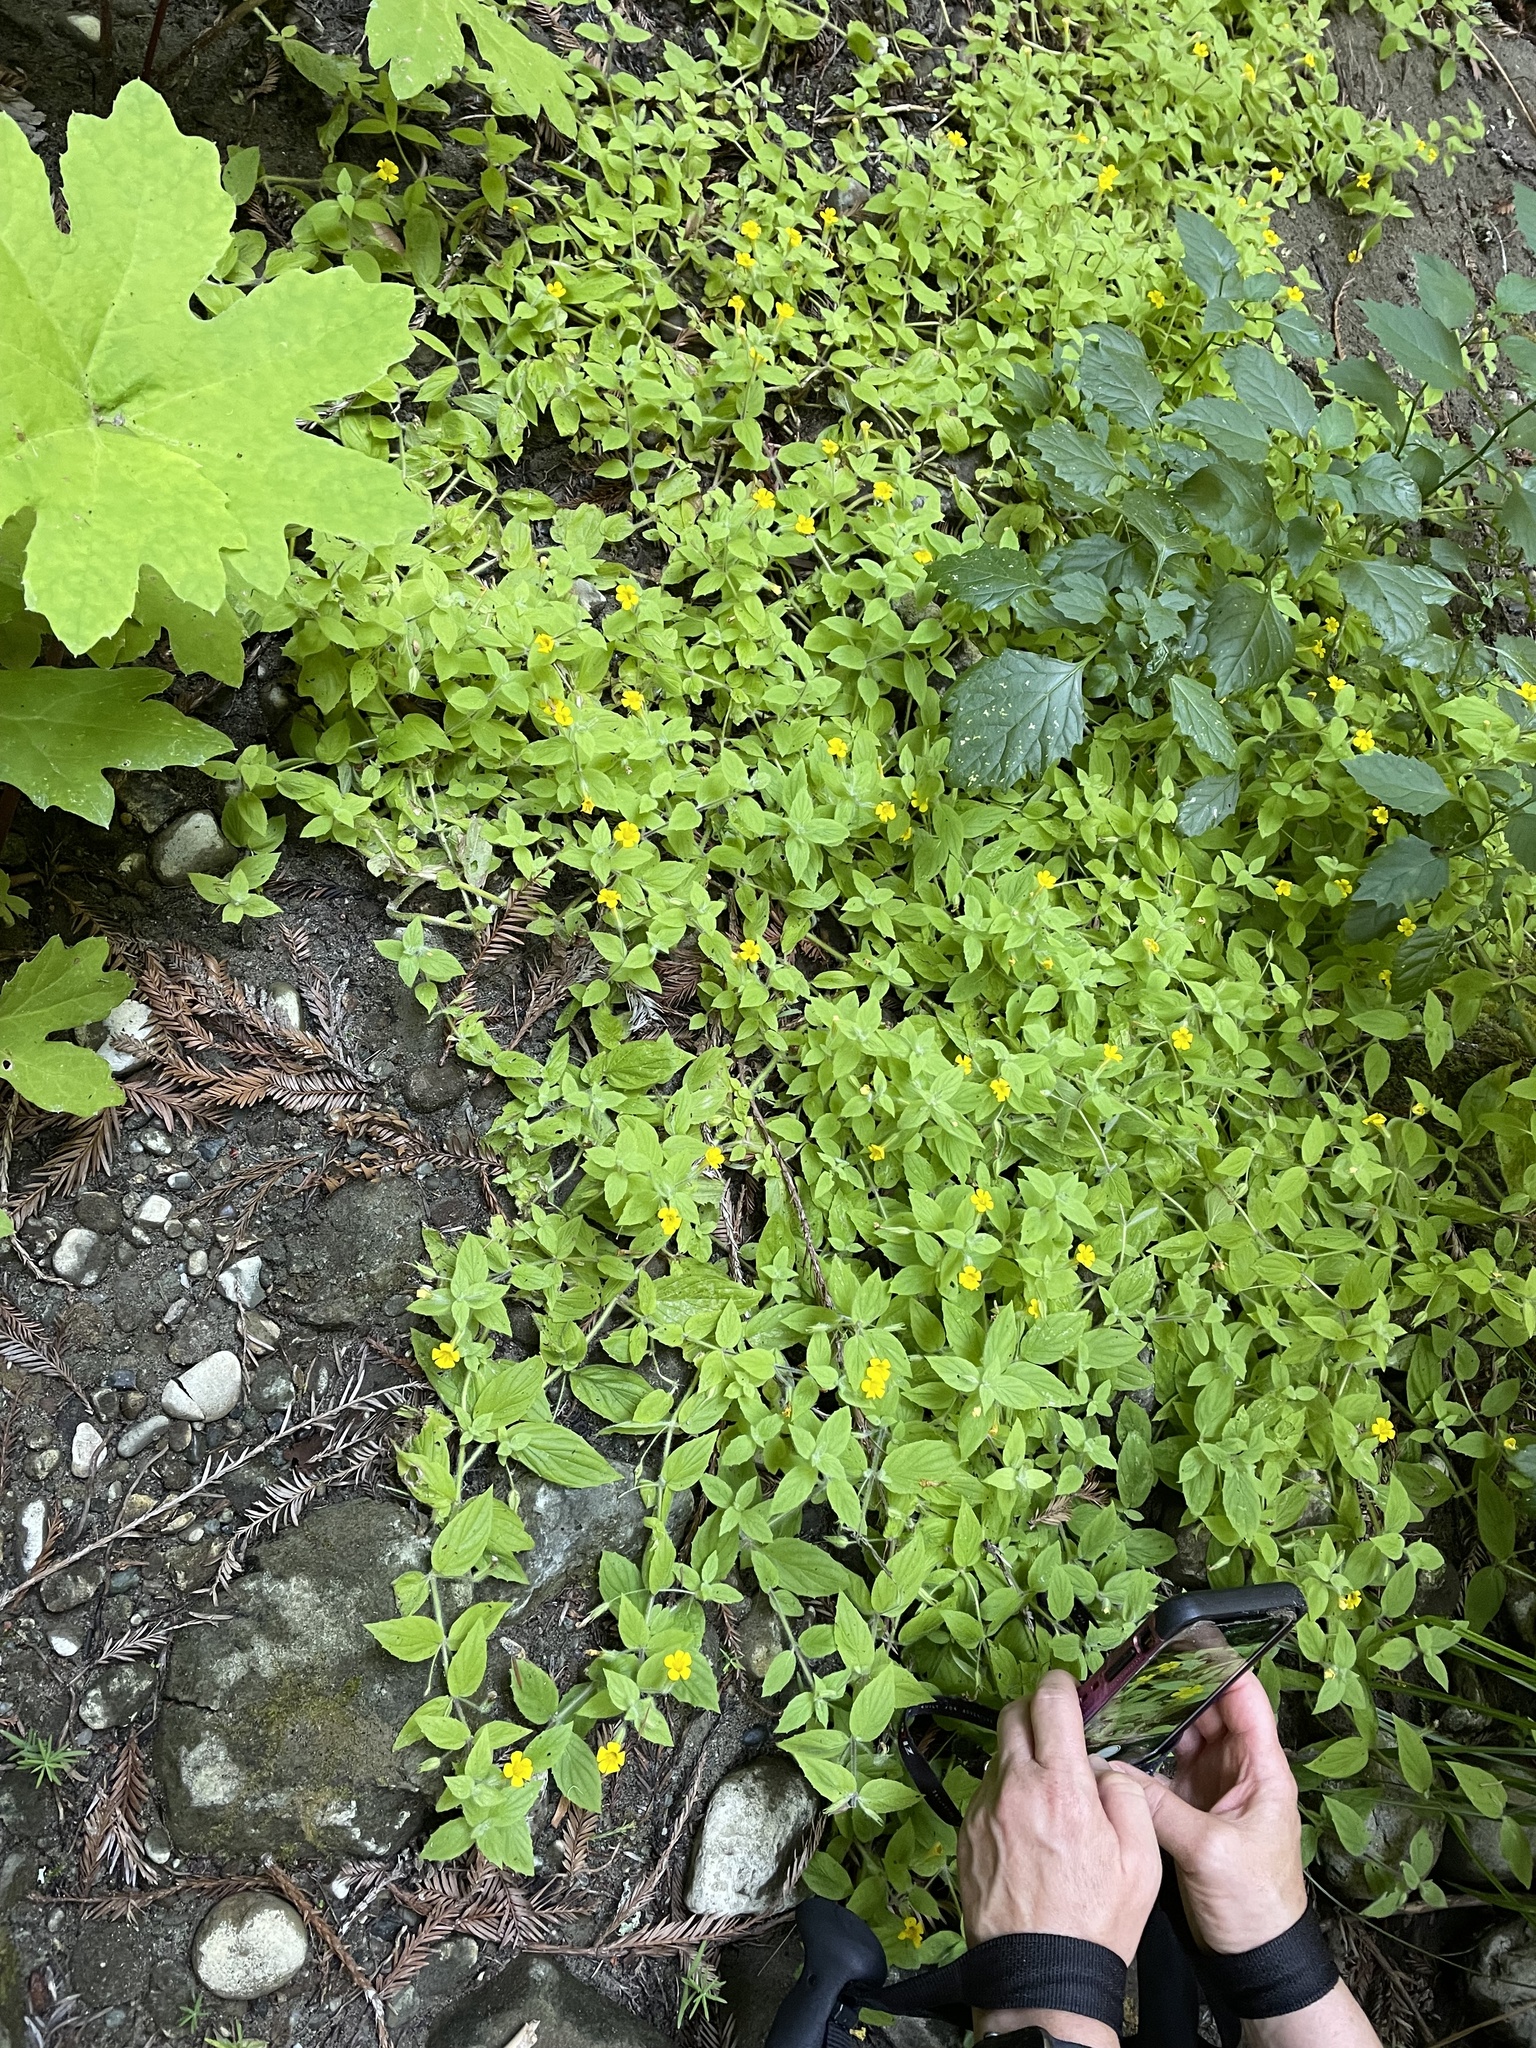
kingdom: Plantae
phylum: Tracheophyta
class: Magnoliopsida
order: Lamiales
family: Phrymaceae
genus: Erythranthe
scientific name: Erythranthe ptilota
